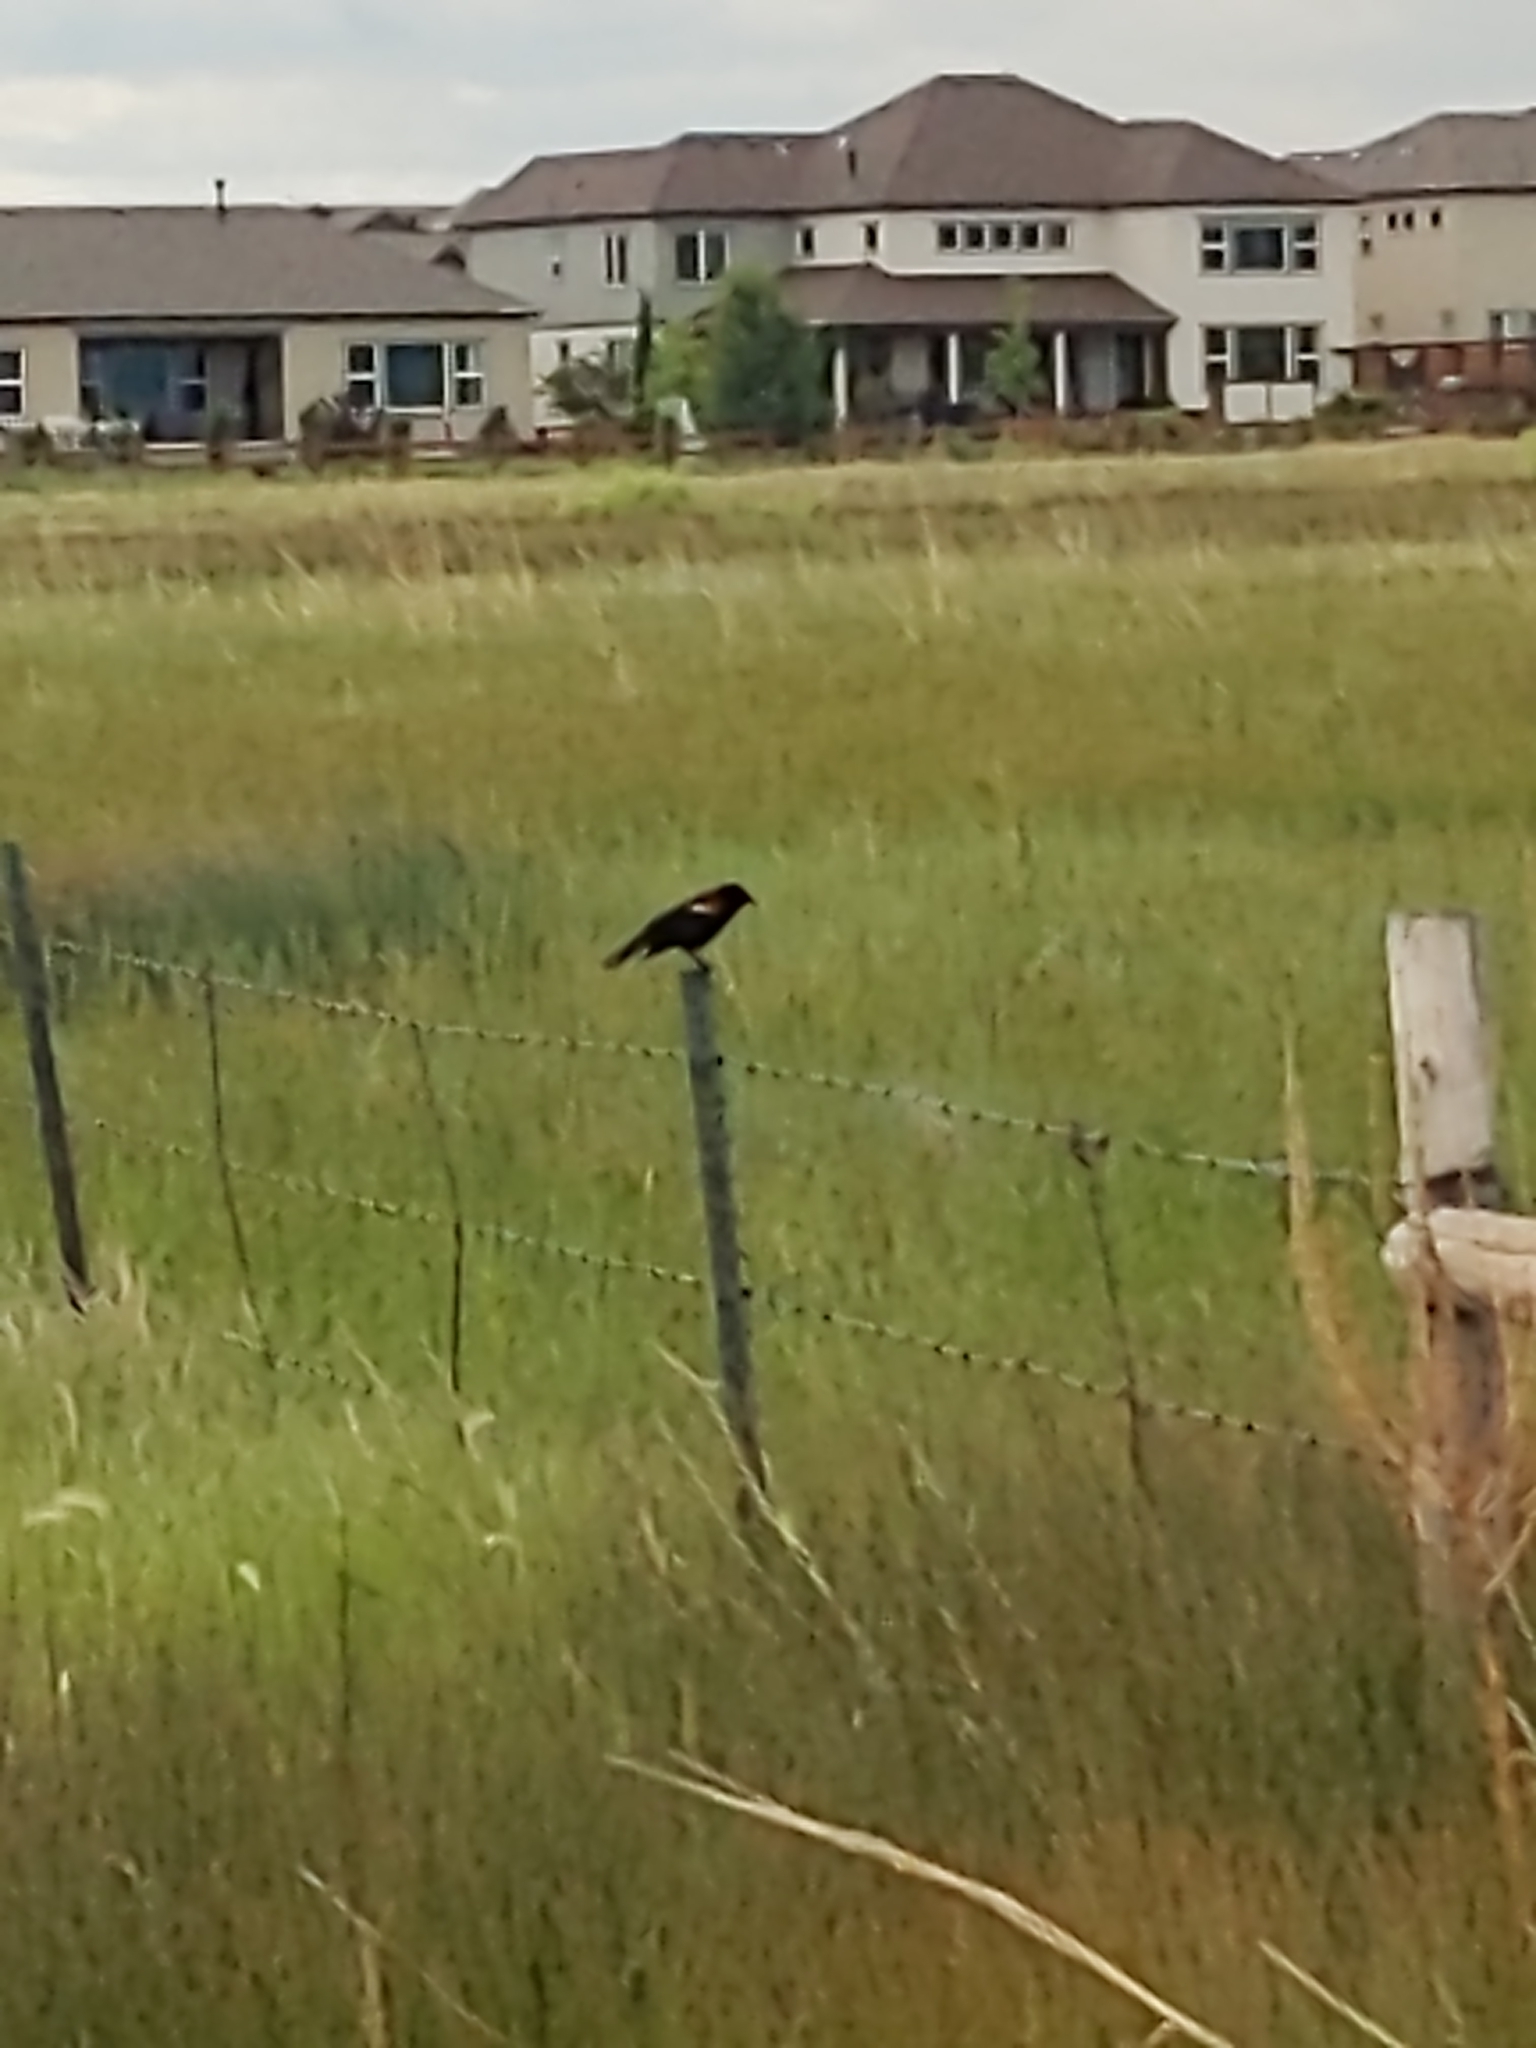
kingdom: Animalia
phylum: Chordata
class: Aves
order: Passeriformes
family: Icteridae
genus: Agelaius
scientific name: Agelaius phoeniceus
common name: Red-winged blackbird
